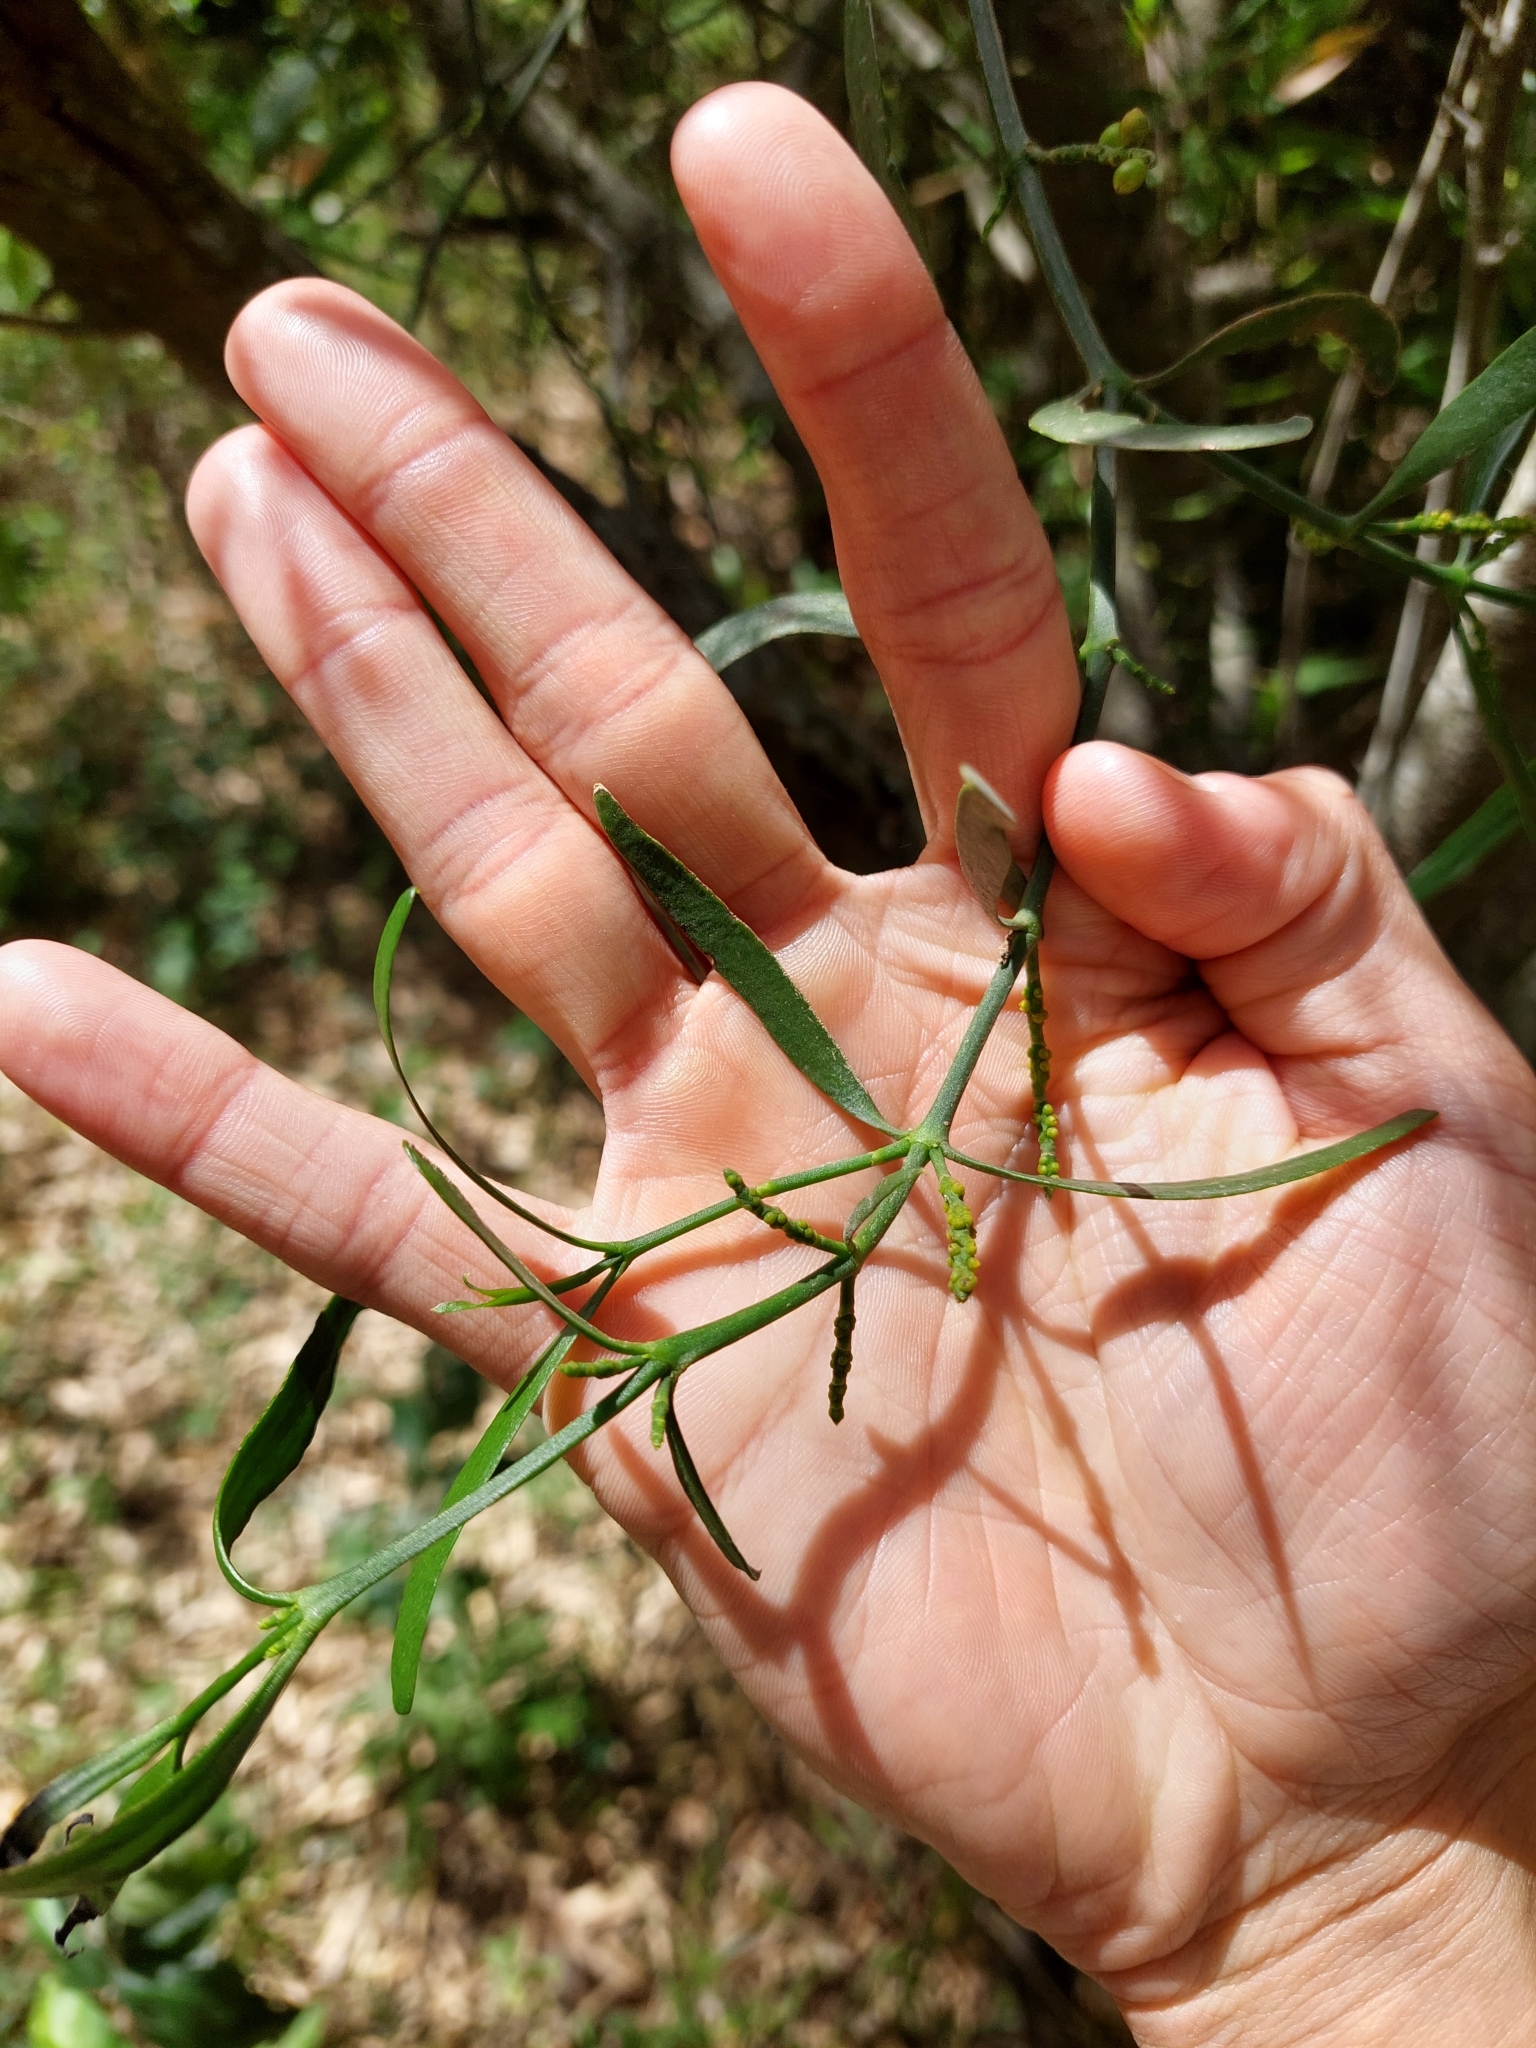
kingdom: Plantae
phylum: Tracheophyta
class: Magnoliopsida
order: Santalales
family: Viscaceae
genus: Phoradendron
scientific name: Phoradendron quadrangulare
